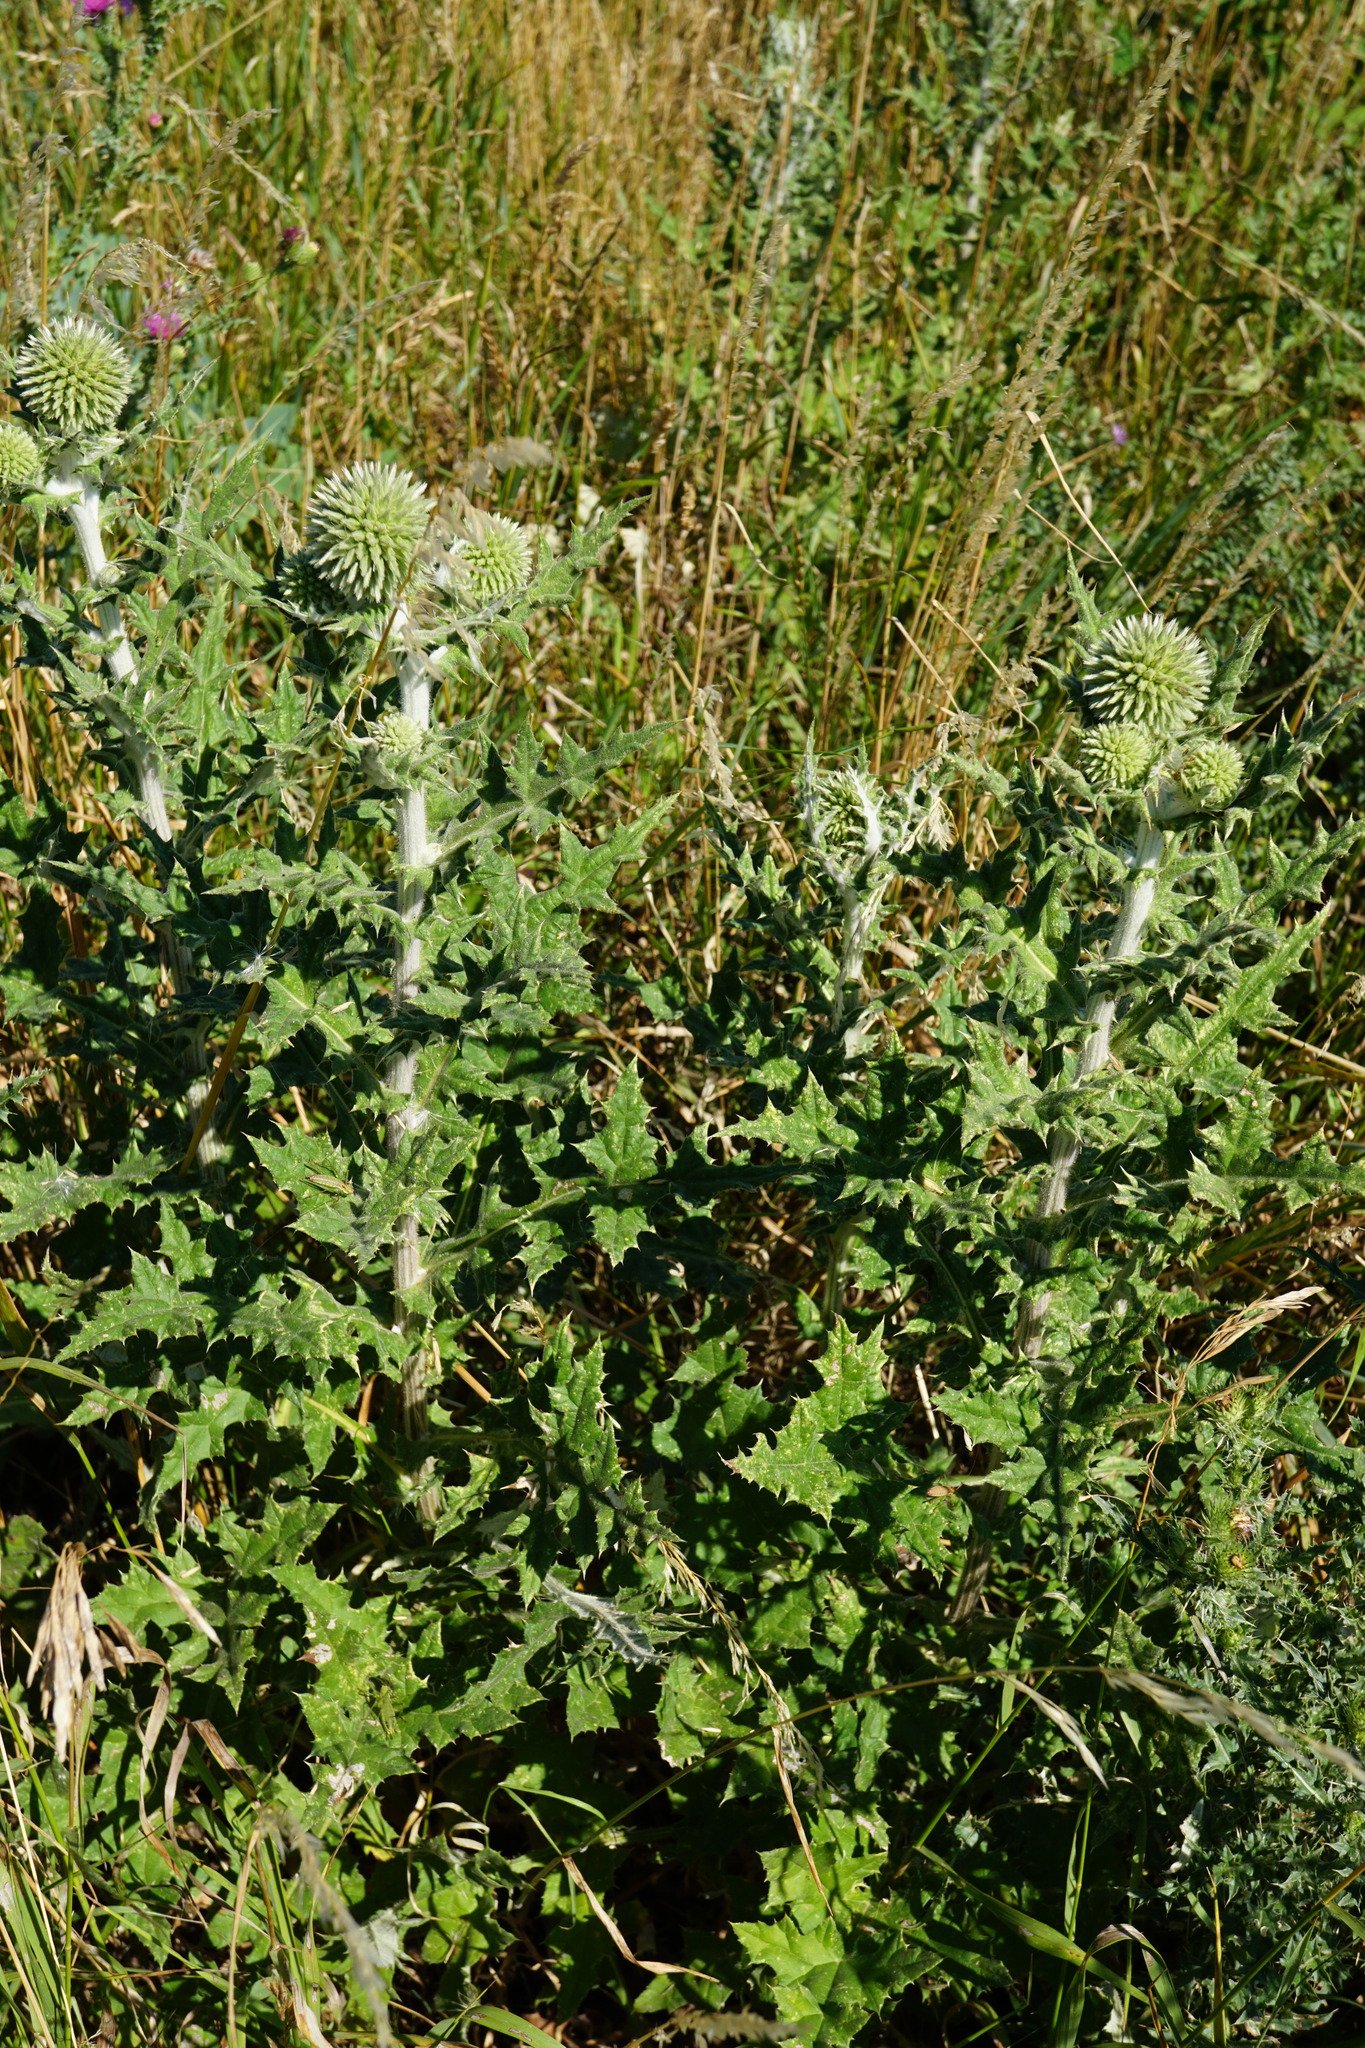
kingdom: Plantae
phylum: Tracheophyta
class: Magnoliopsida
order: Asterales
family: Asteraceae
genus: Echinops
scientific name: Echinops sphaerocephalus
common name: Glandular globe-thistle
